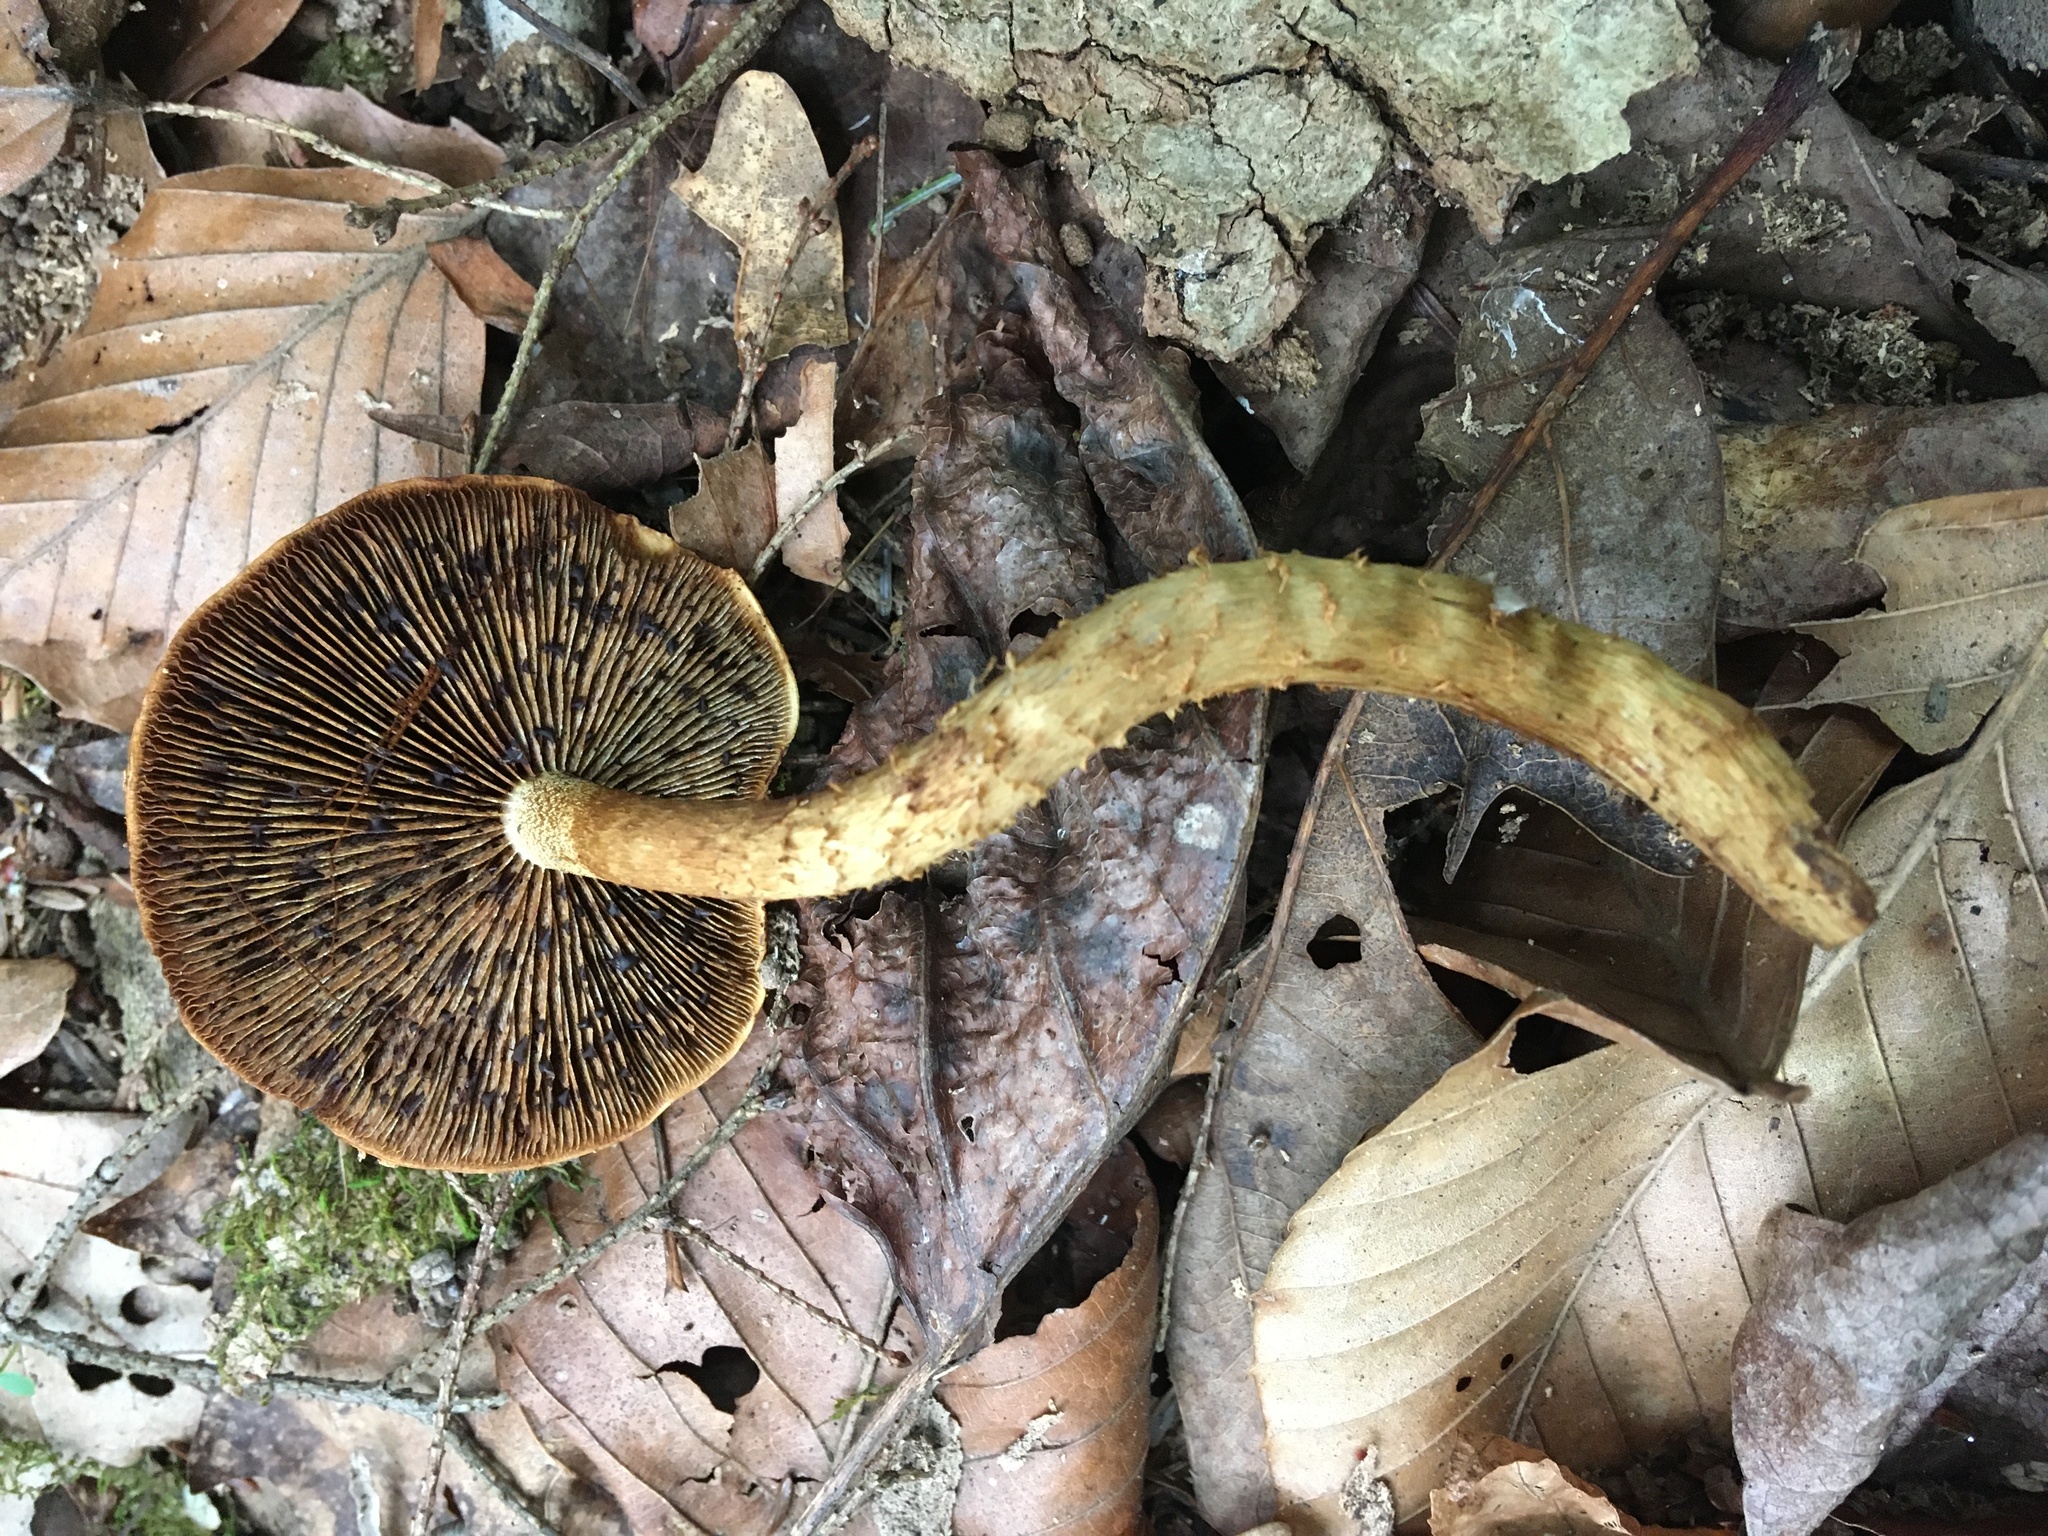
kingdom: Fungi
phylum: Basidiomycota
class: Agaricomycetes
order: Agaricales
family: Tubariaceae
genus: Hemistropharia
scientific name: Hemistropharia albocrenulata
